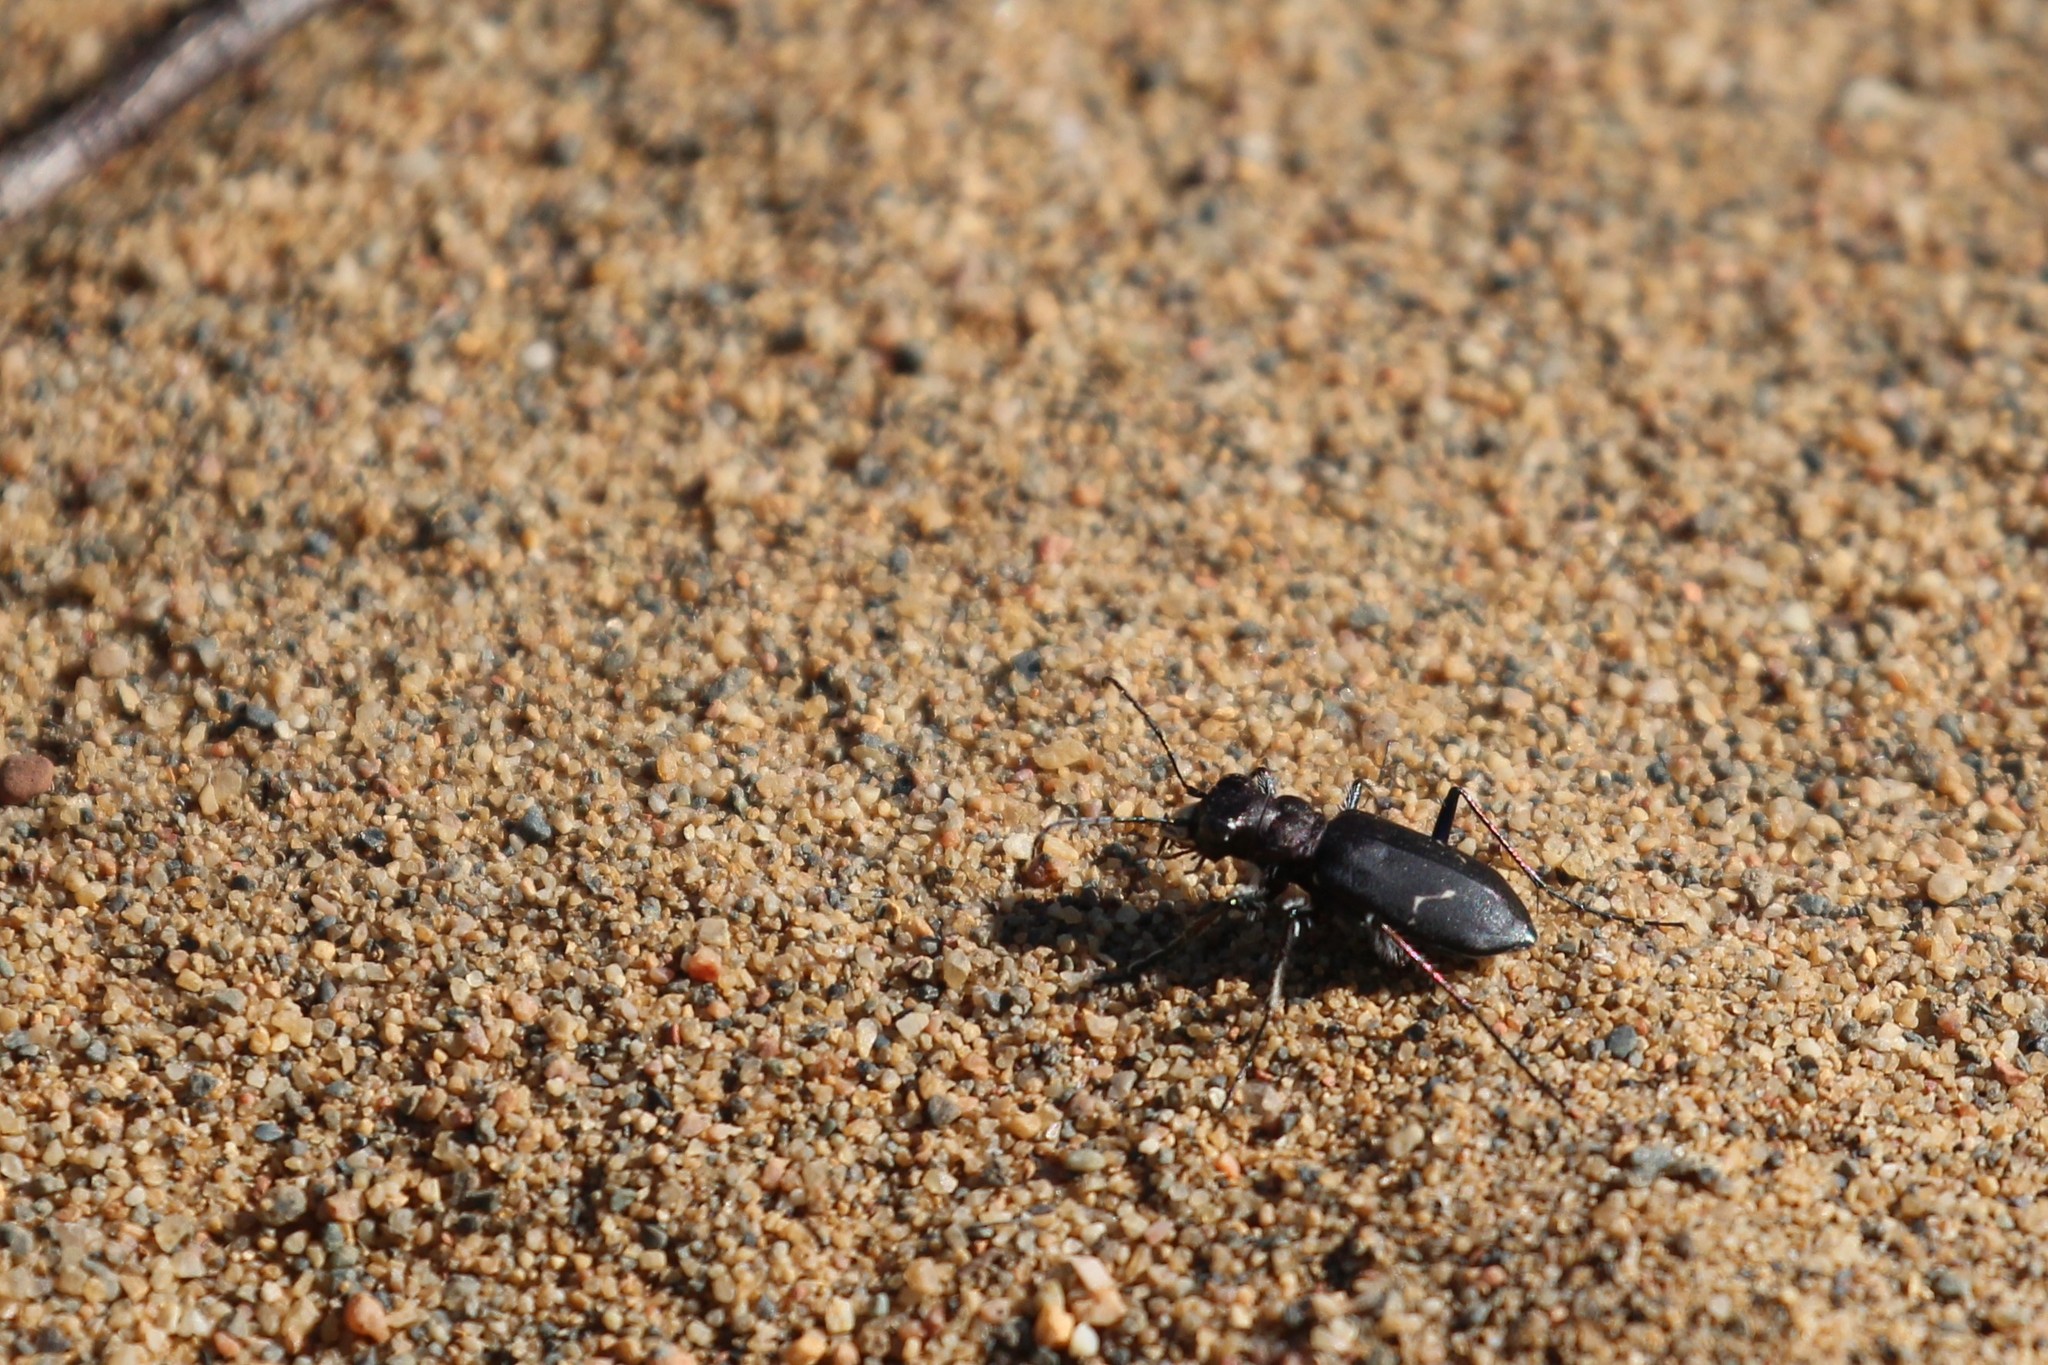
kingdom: Animalia
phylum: Arthropoda
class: Insecta
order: Coleoptera
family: Carabidae
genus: Cicindela
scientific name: Cicindela longilabris
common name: Boreal long-lipped tiger beetle
